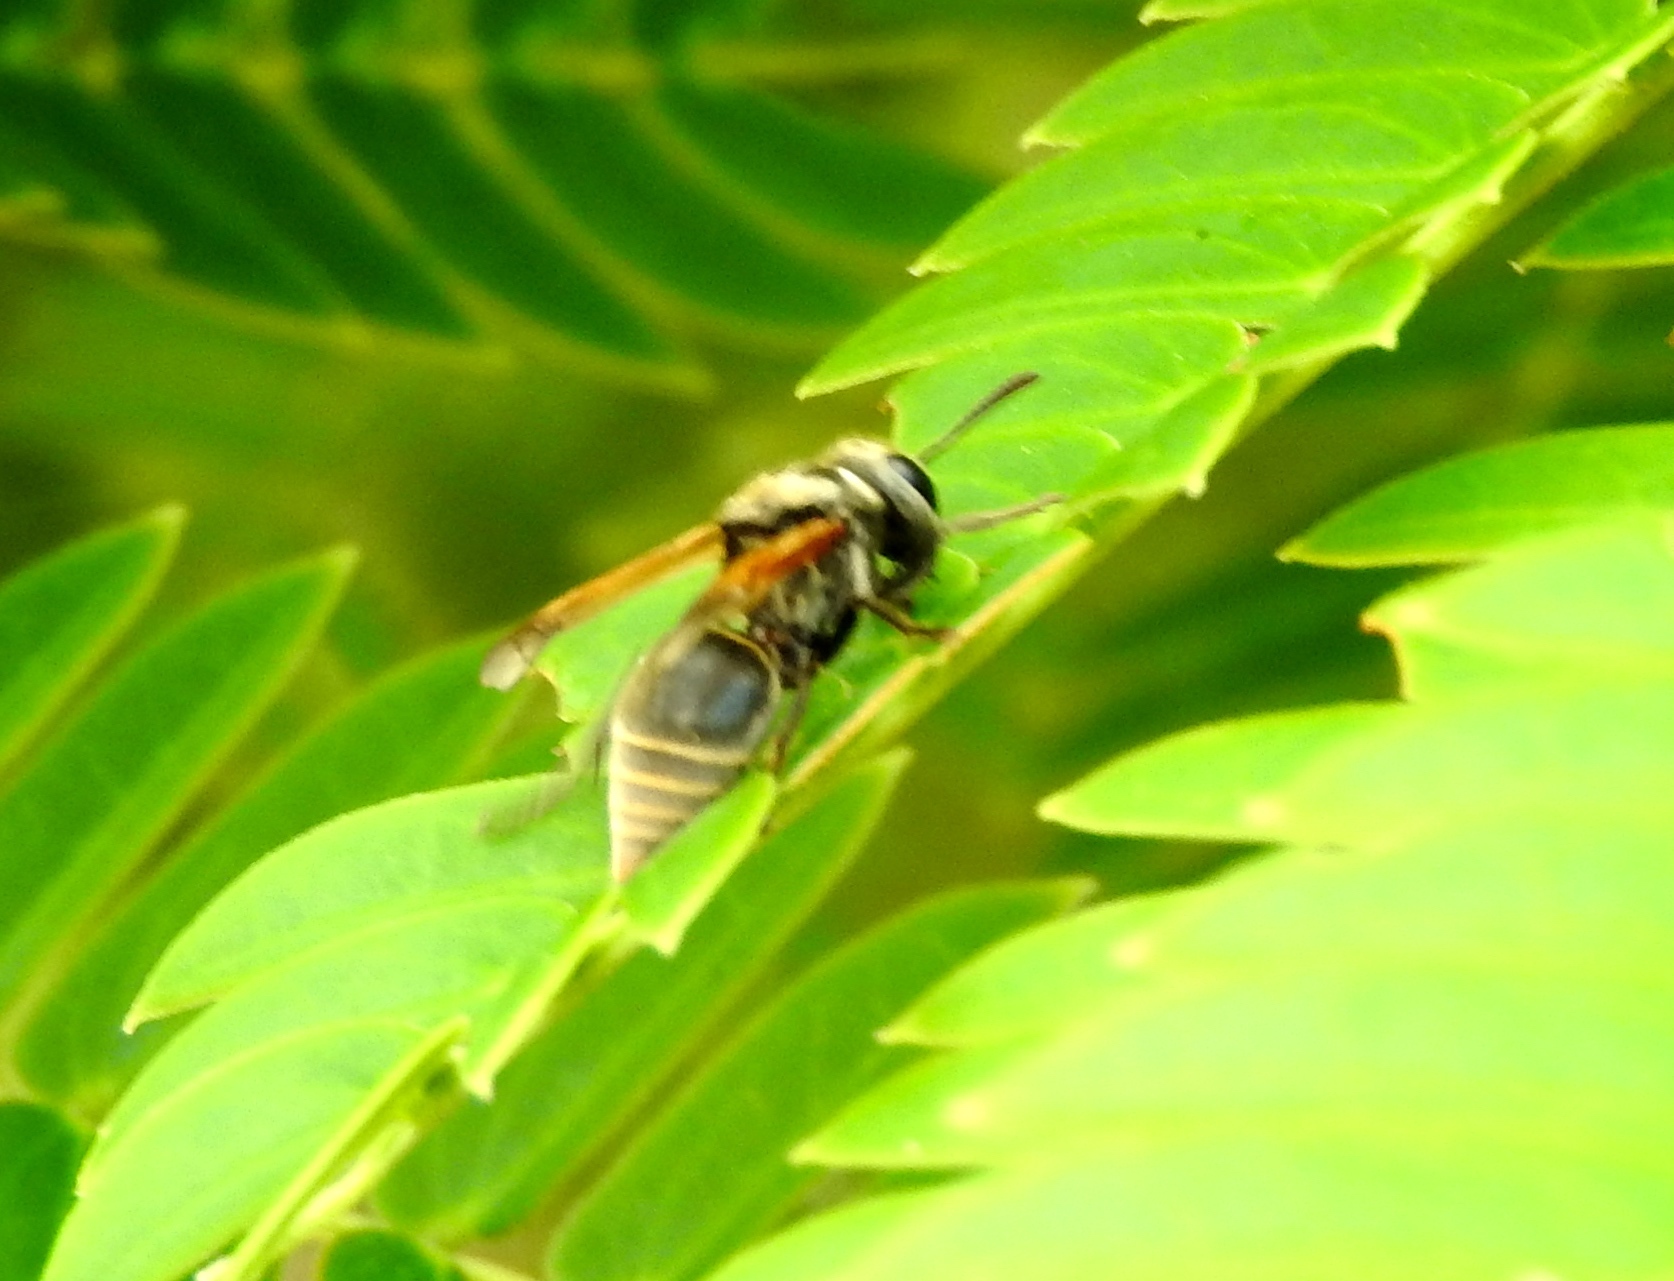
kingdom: Animalia
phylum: Arthropoda
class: Insecta
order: Hymenoptera
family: Vespidae
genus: Brachygastra
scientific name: Brachygastra mellifica
